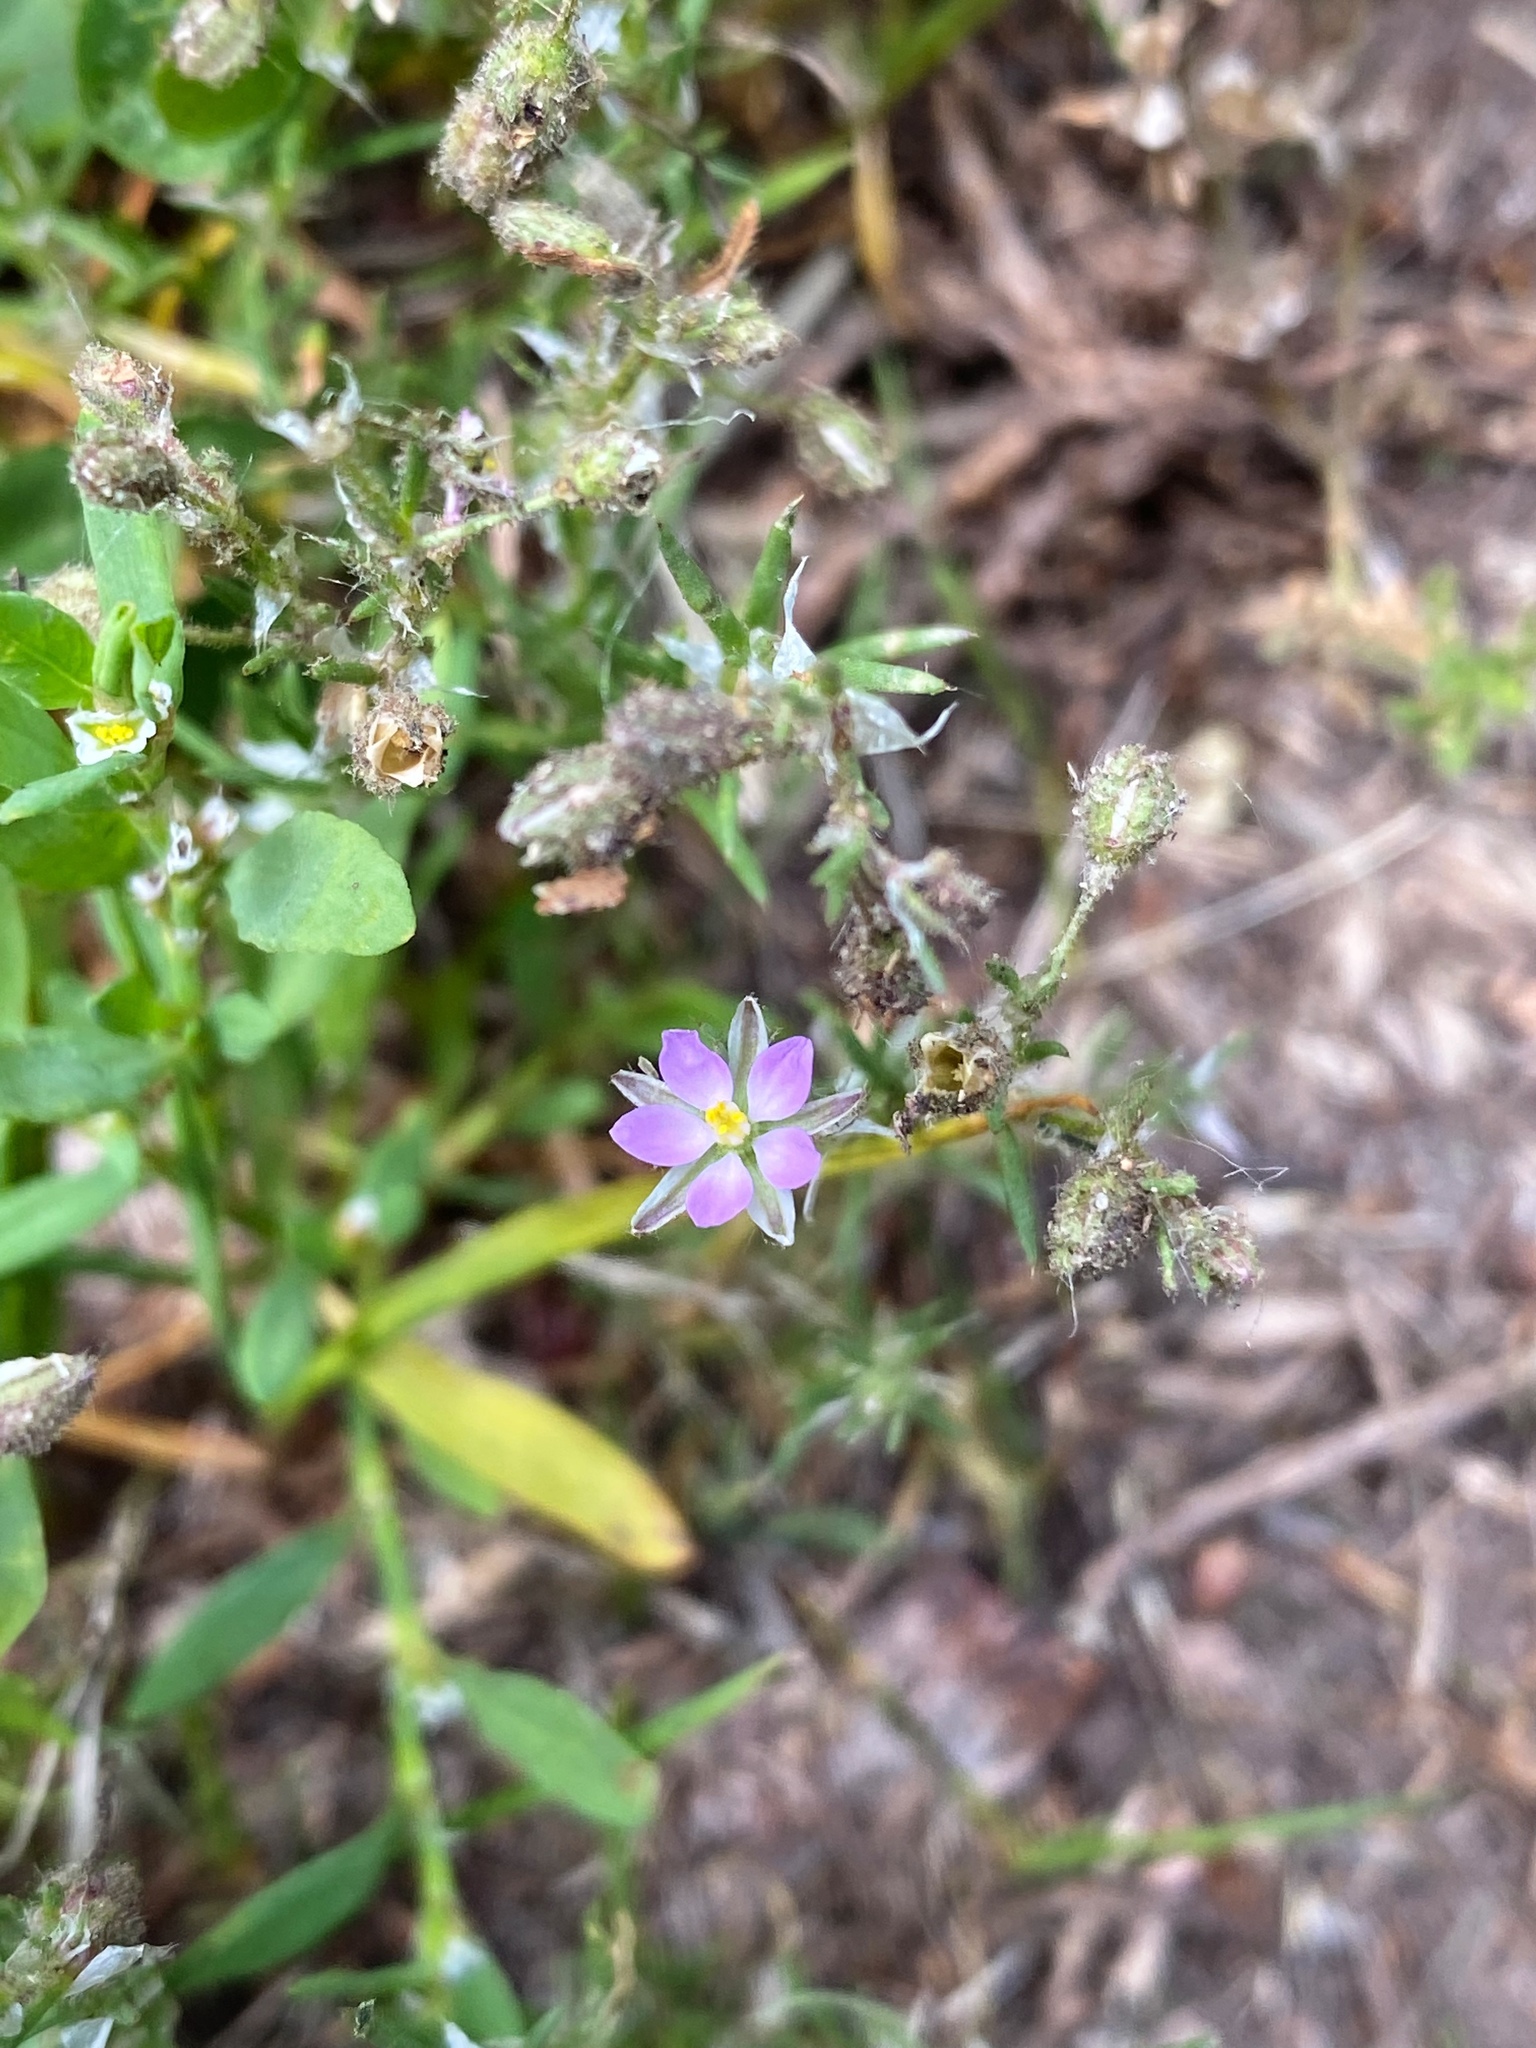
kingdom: Plantae
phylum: Tracheophyta
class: Magnoliopsida
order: Caryophyllales
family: Caryophyllaceae
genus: Spergularia
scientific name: Spergularia rubra
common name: Red sand-spurrey
